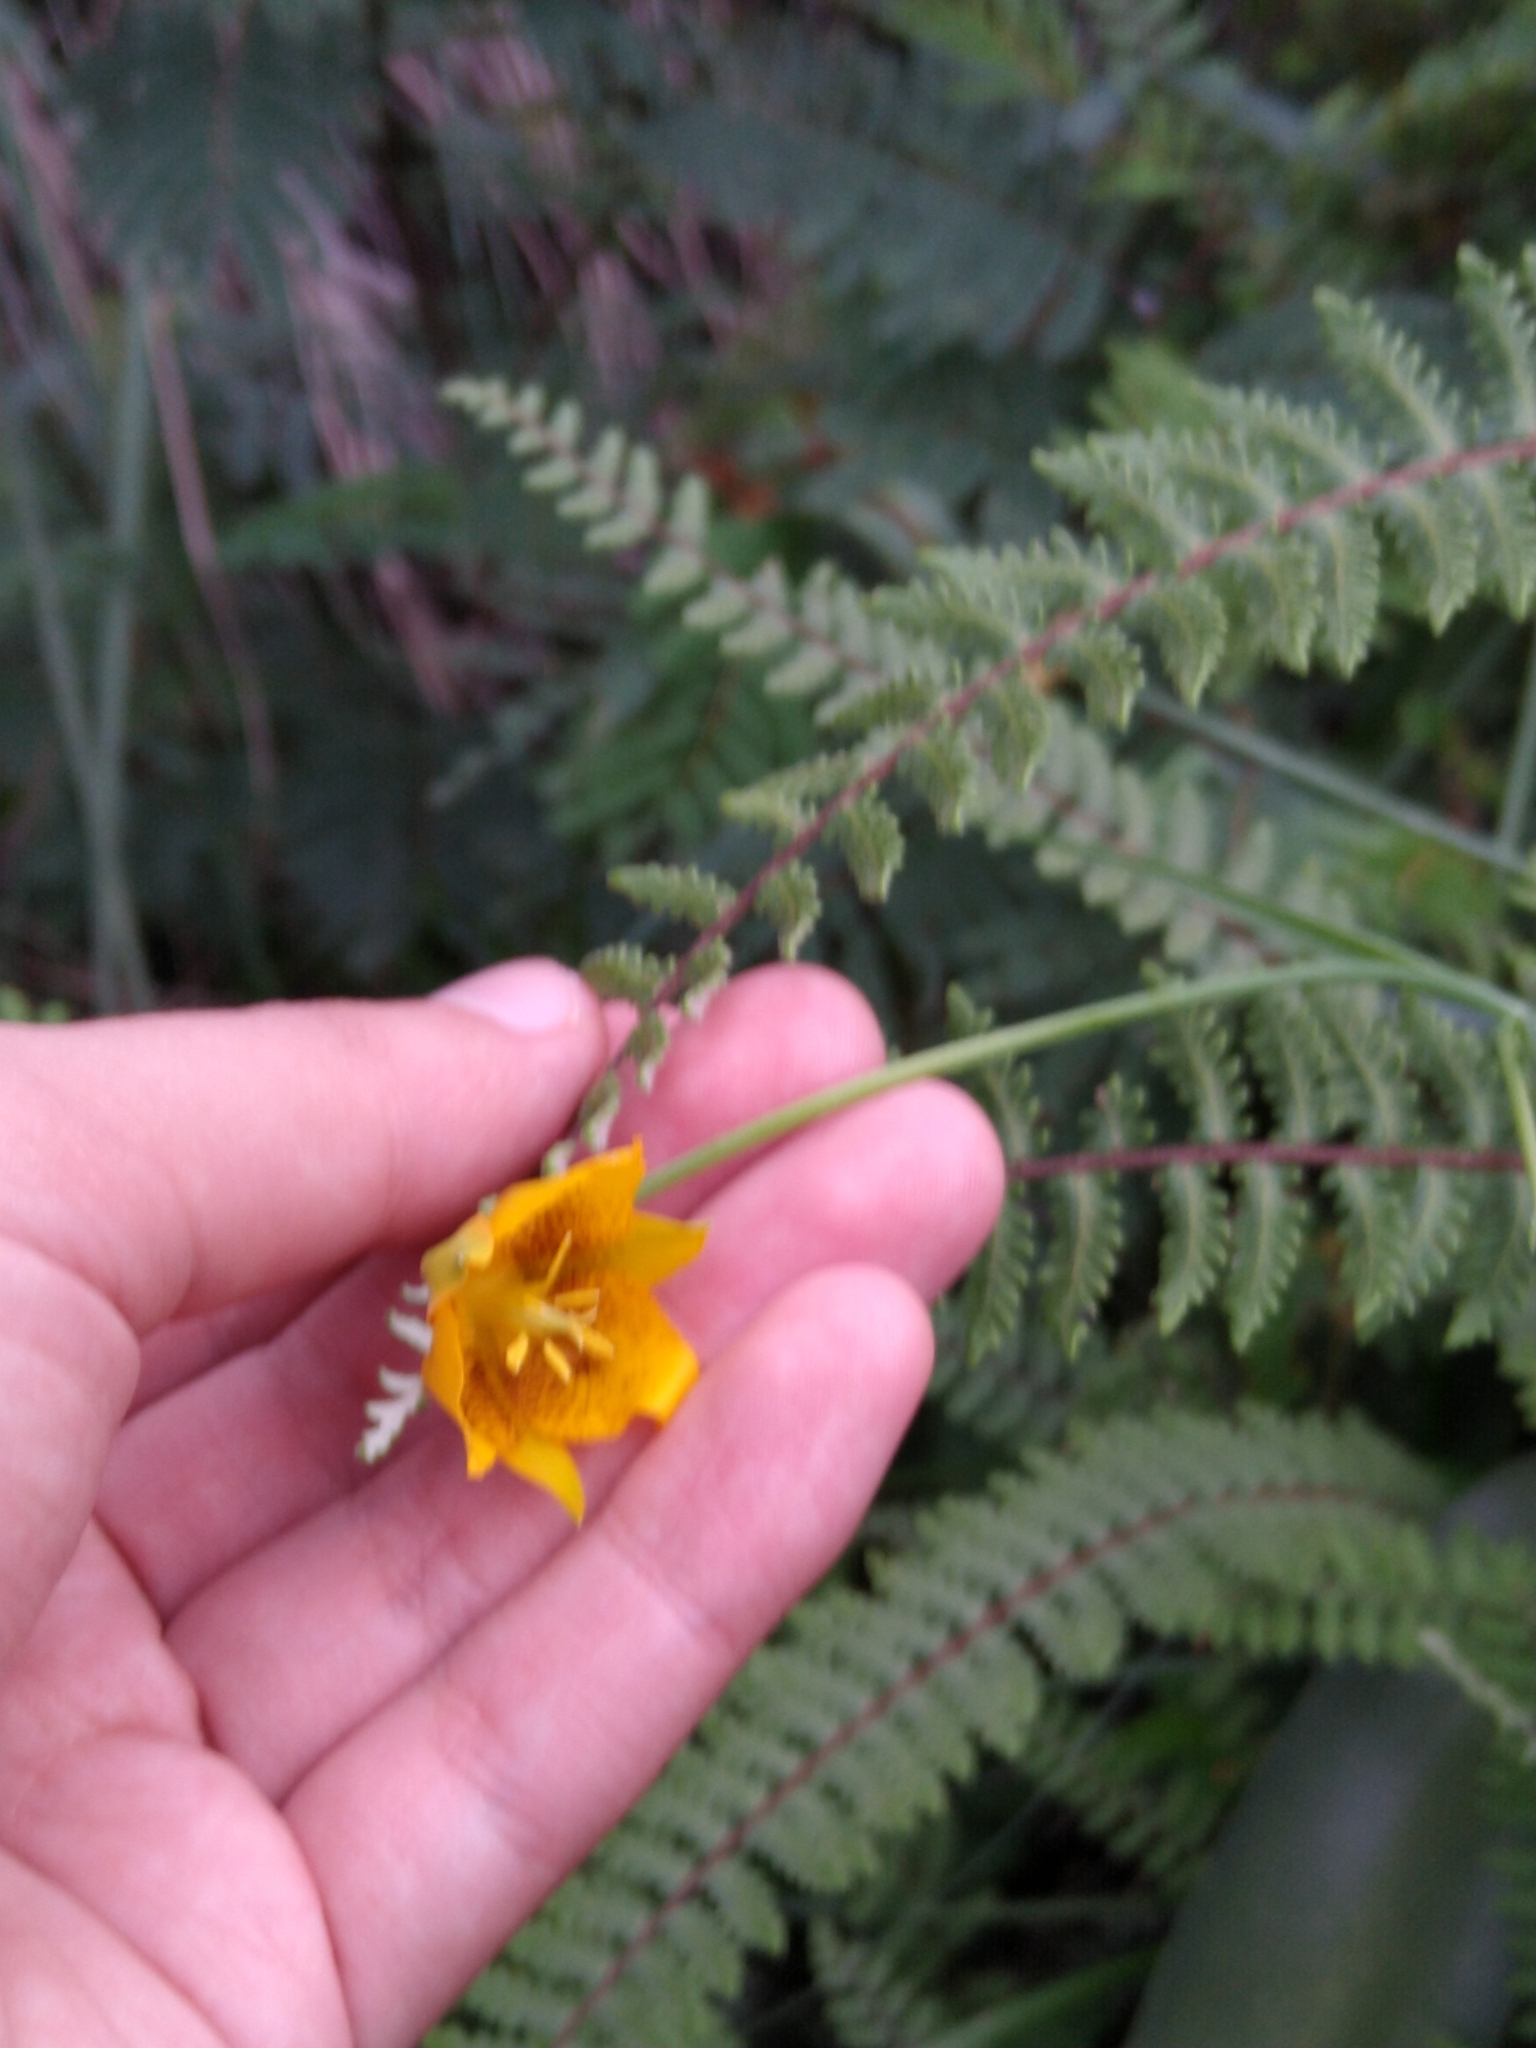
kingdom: Plantae
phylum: Tracheophyta
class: Liliopsida
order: Liliales
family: Liliaceae
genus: Calochortus
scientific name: Calochortus barbatus
